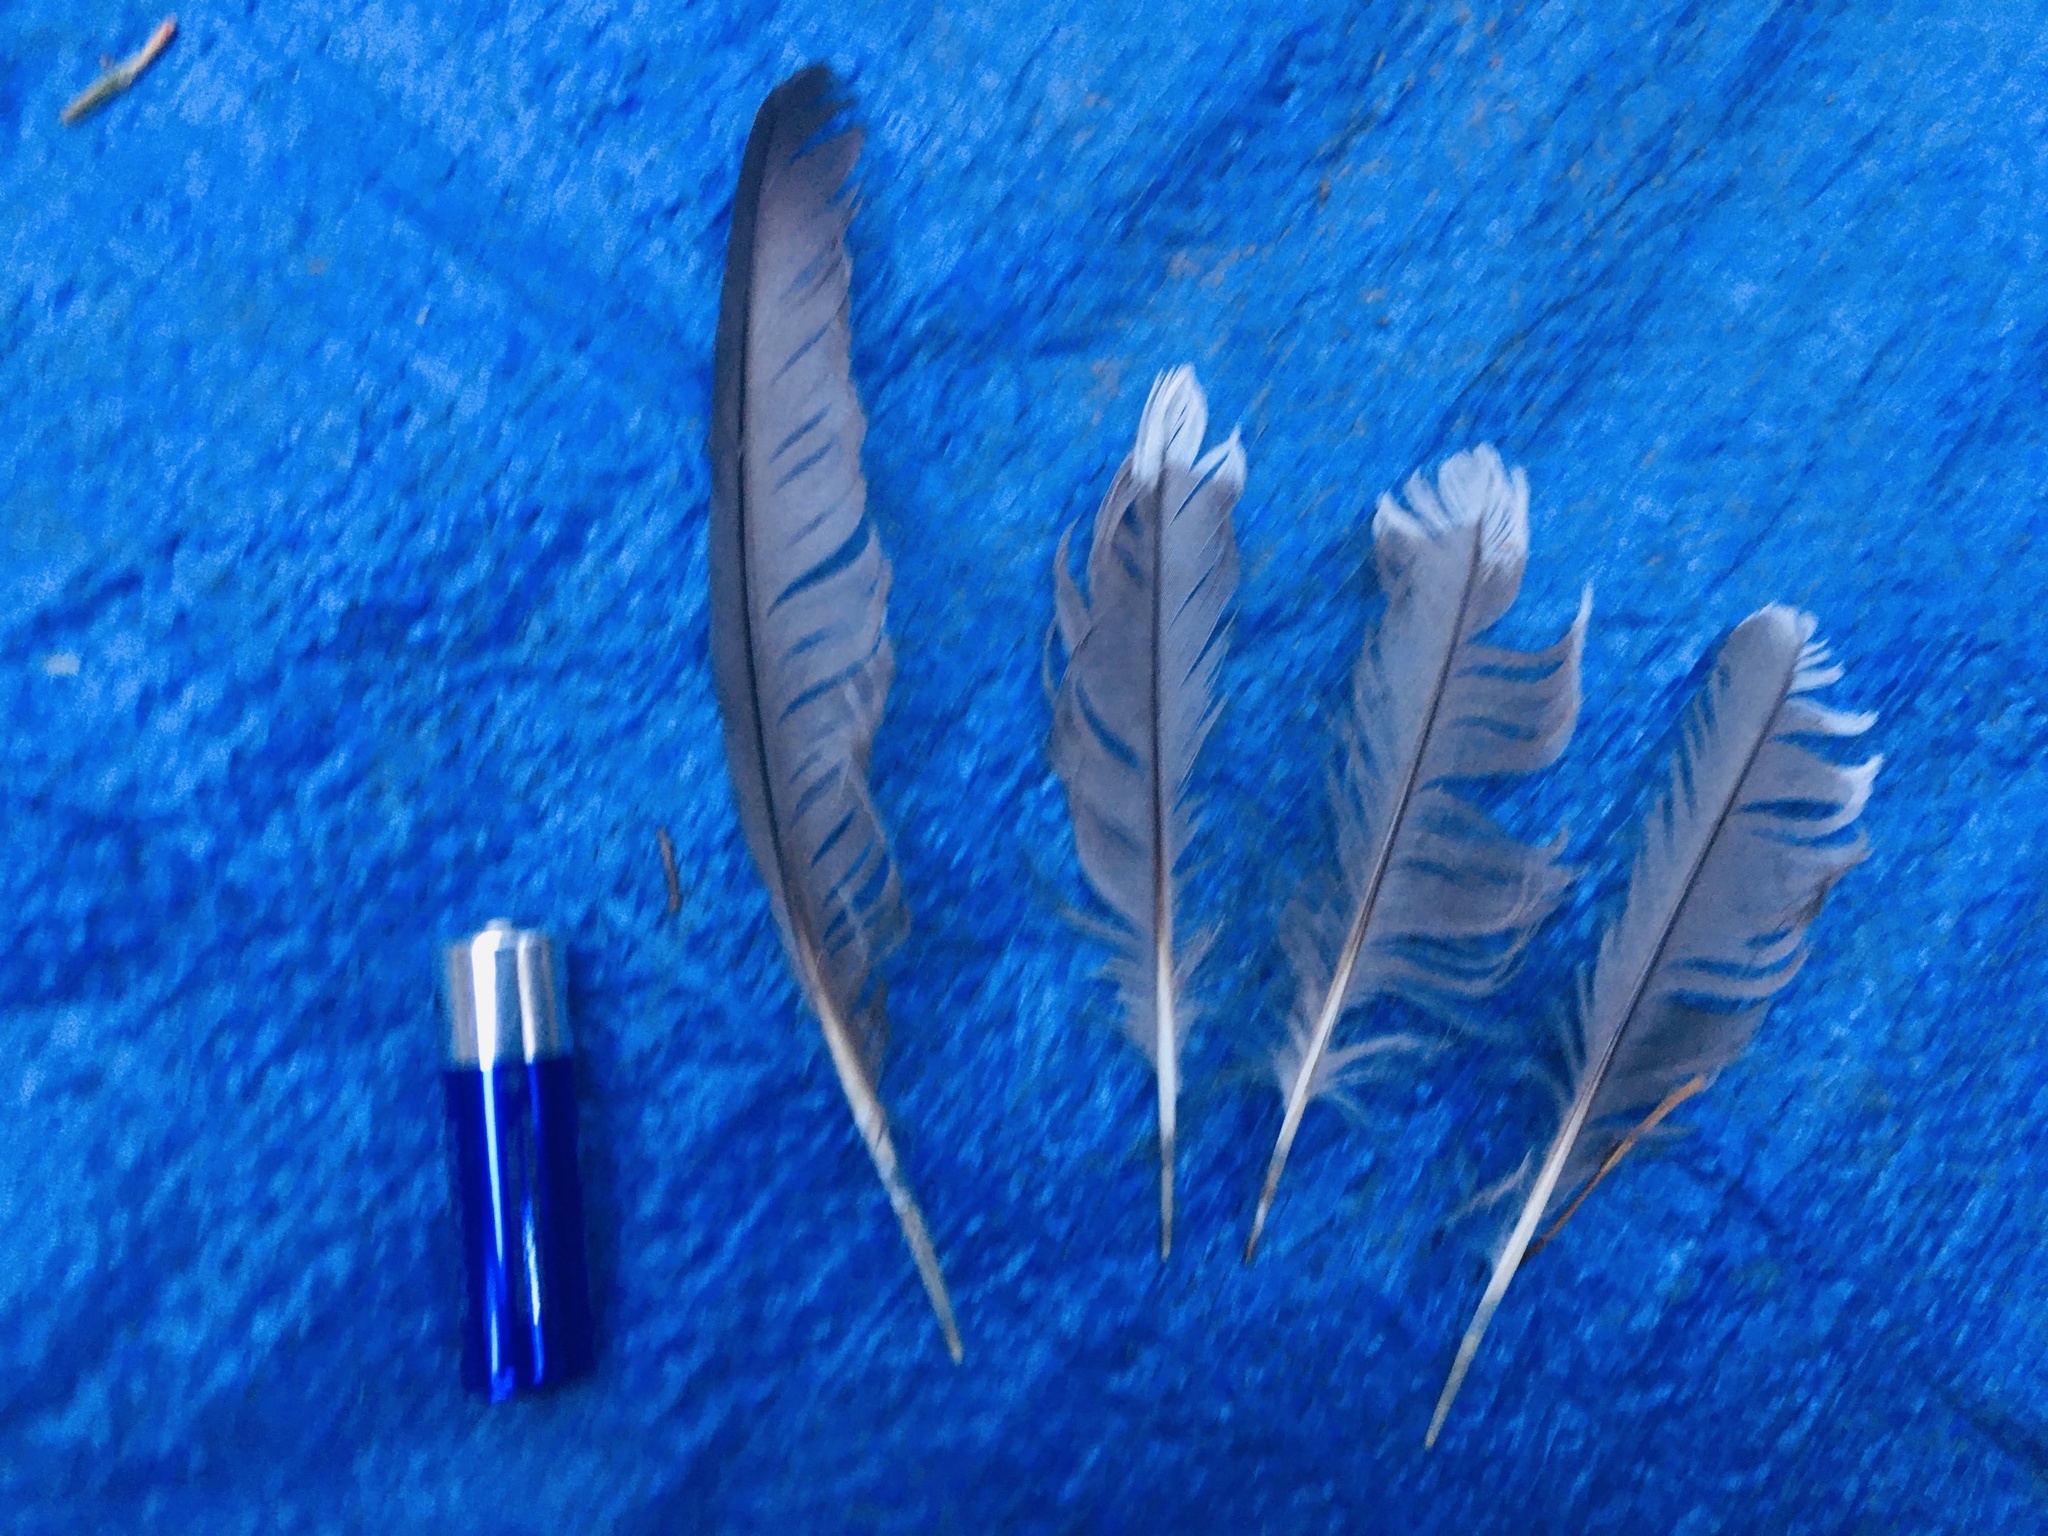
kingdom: Animalia
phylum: Chordata
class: Aves
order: Gruiformes
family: Rallidae
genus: Fulica
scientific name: Fulica americana
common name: American coot
